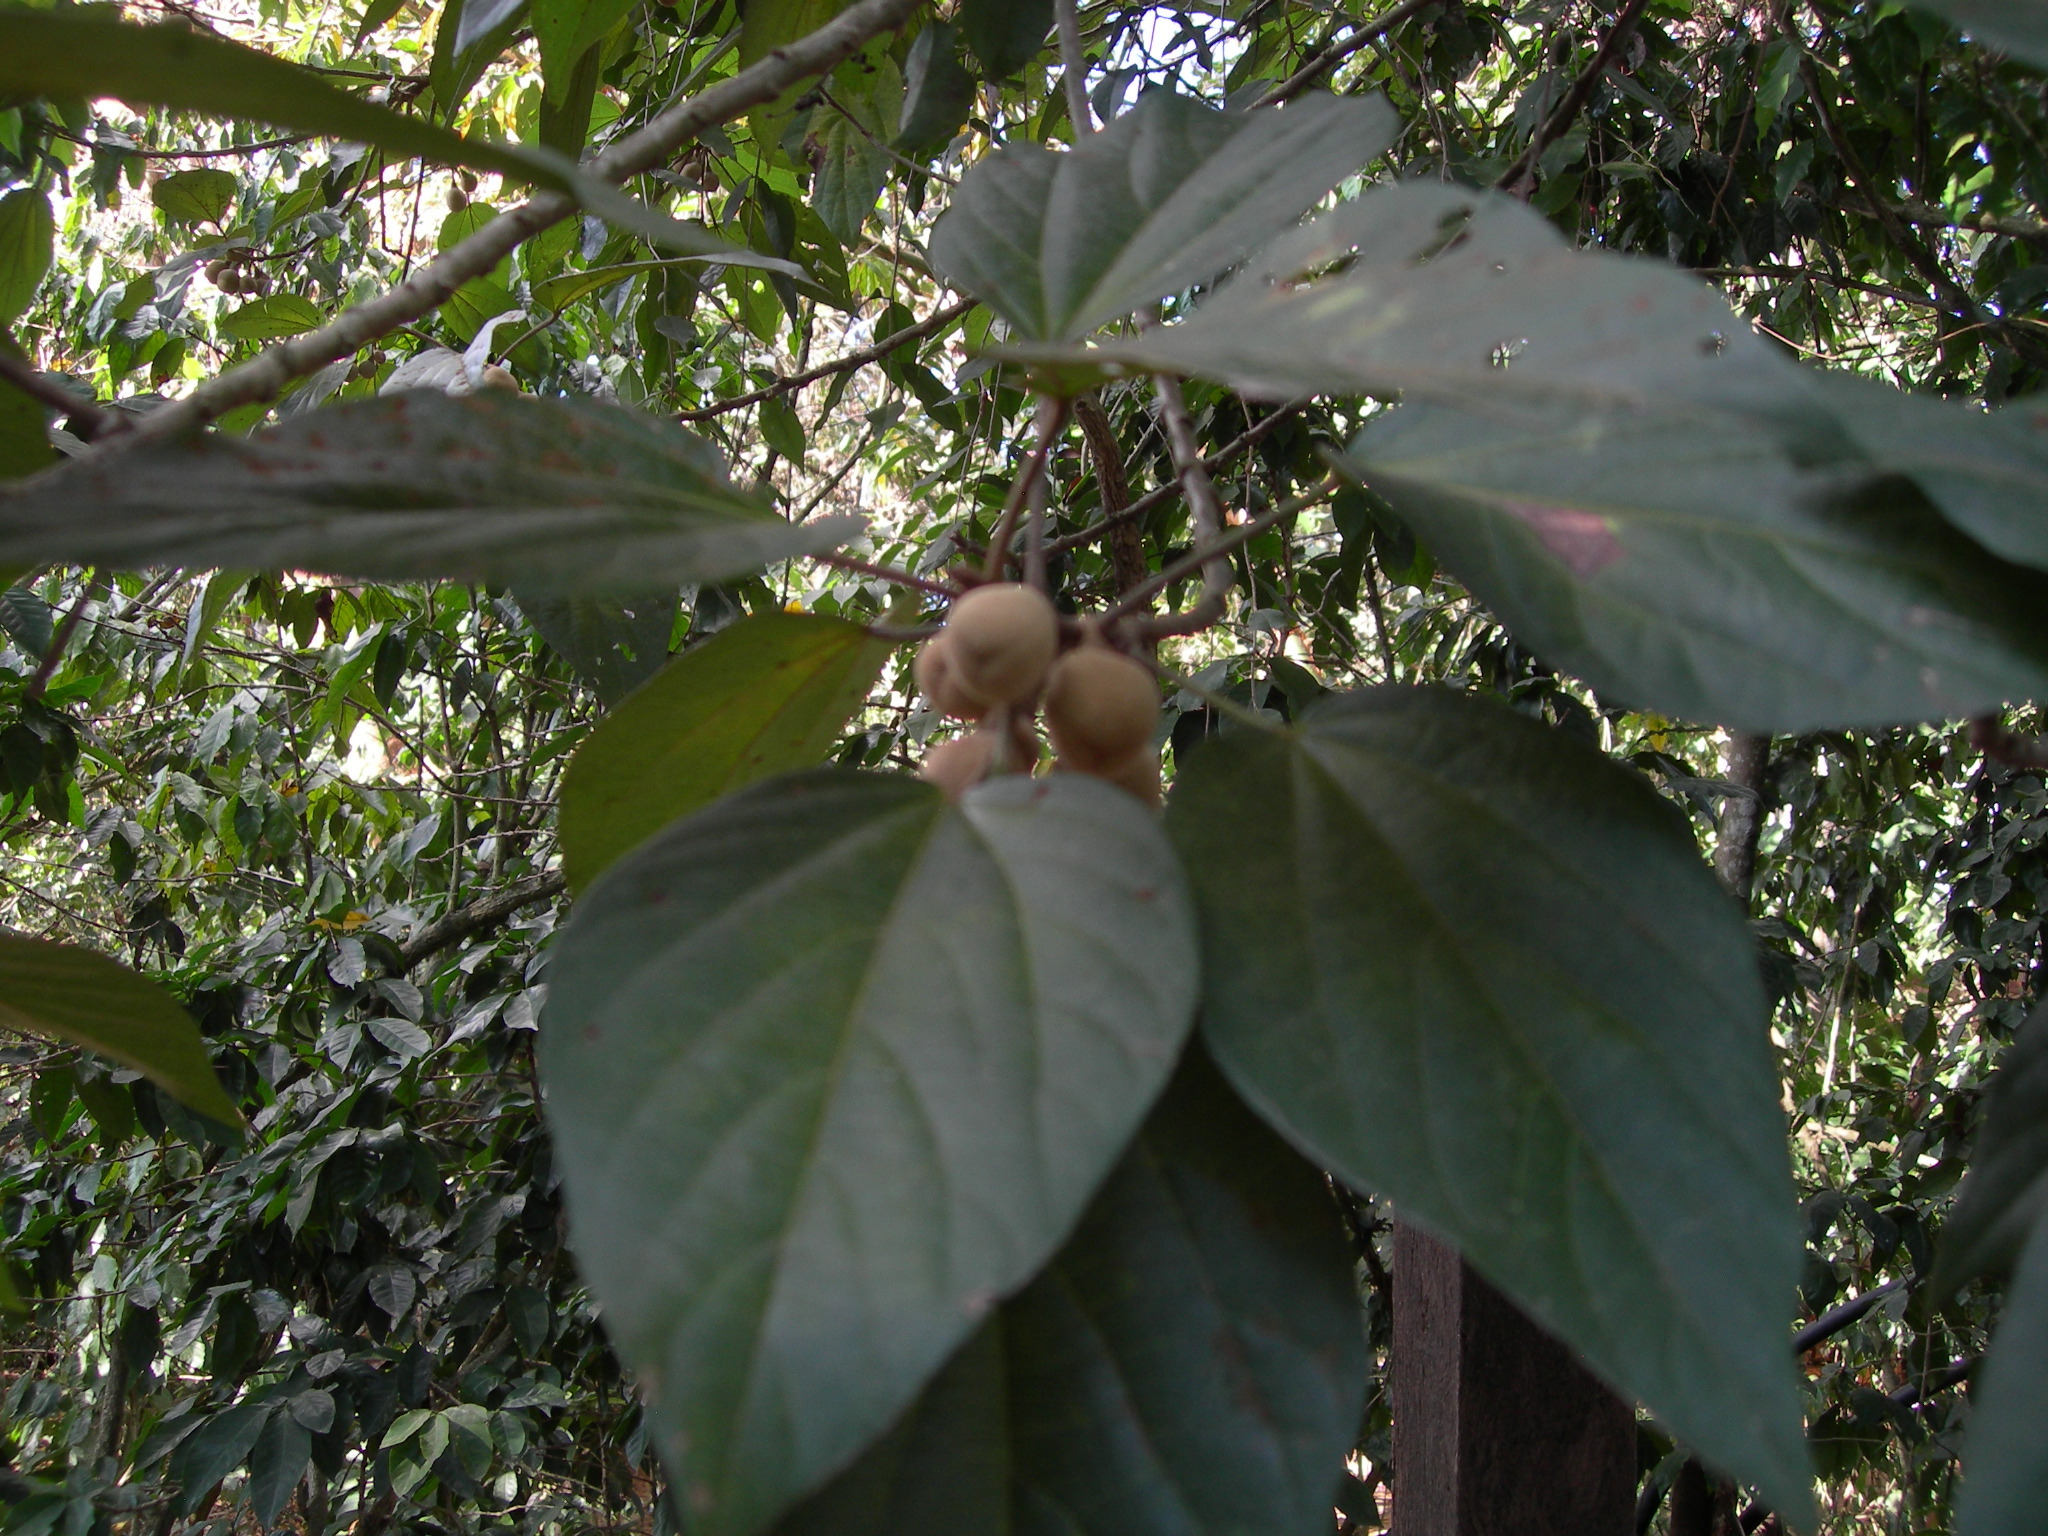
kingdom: Plantae
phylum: Tracheophyta
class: Magnoliopsida
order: Malvales
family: Malvaceae
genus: Hampea
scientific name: Hampea longipes
